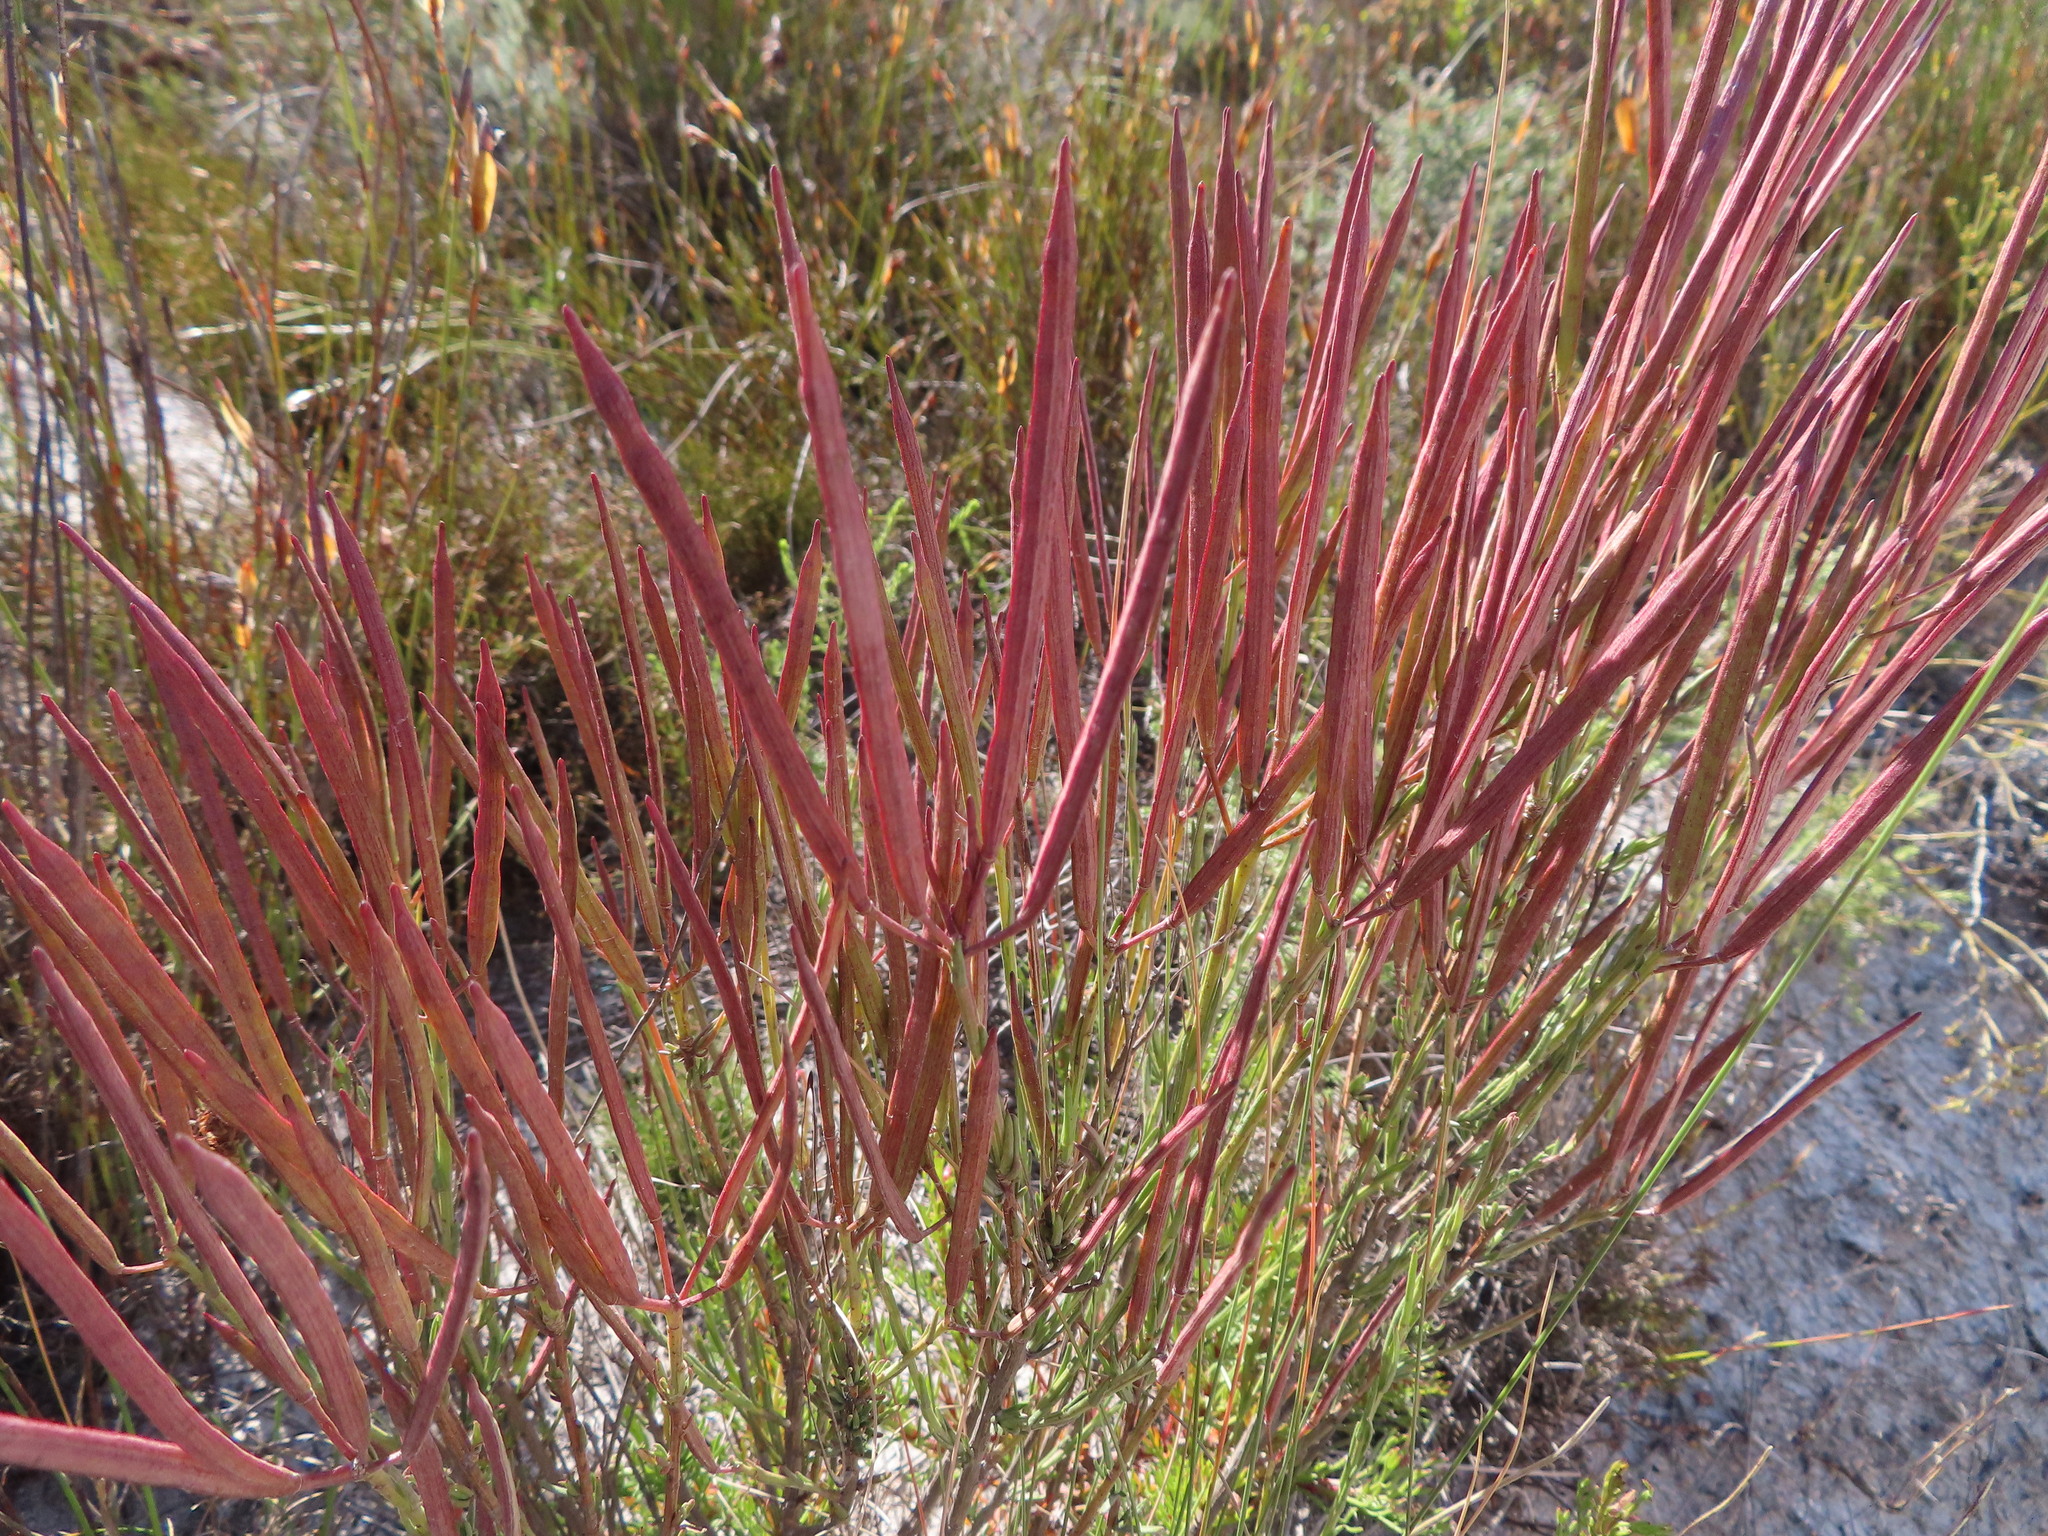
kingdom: Plantae
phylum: Tracheophyta
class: Magnoliopsida
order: Brassicales
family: Brassicaceae
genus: Heliophila
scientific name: Heliophila scoparia
